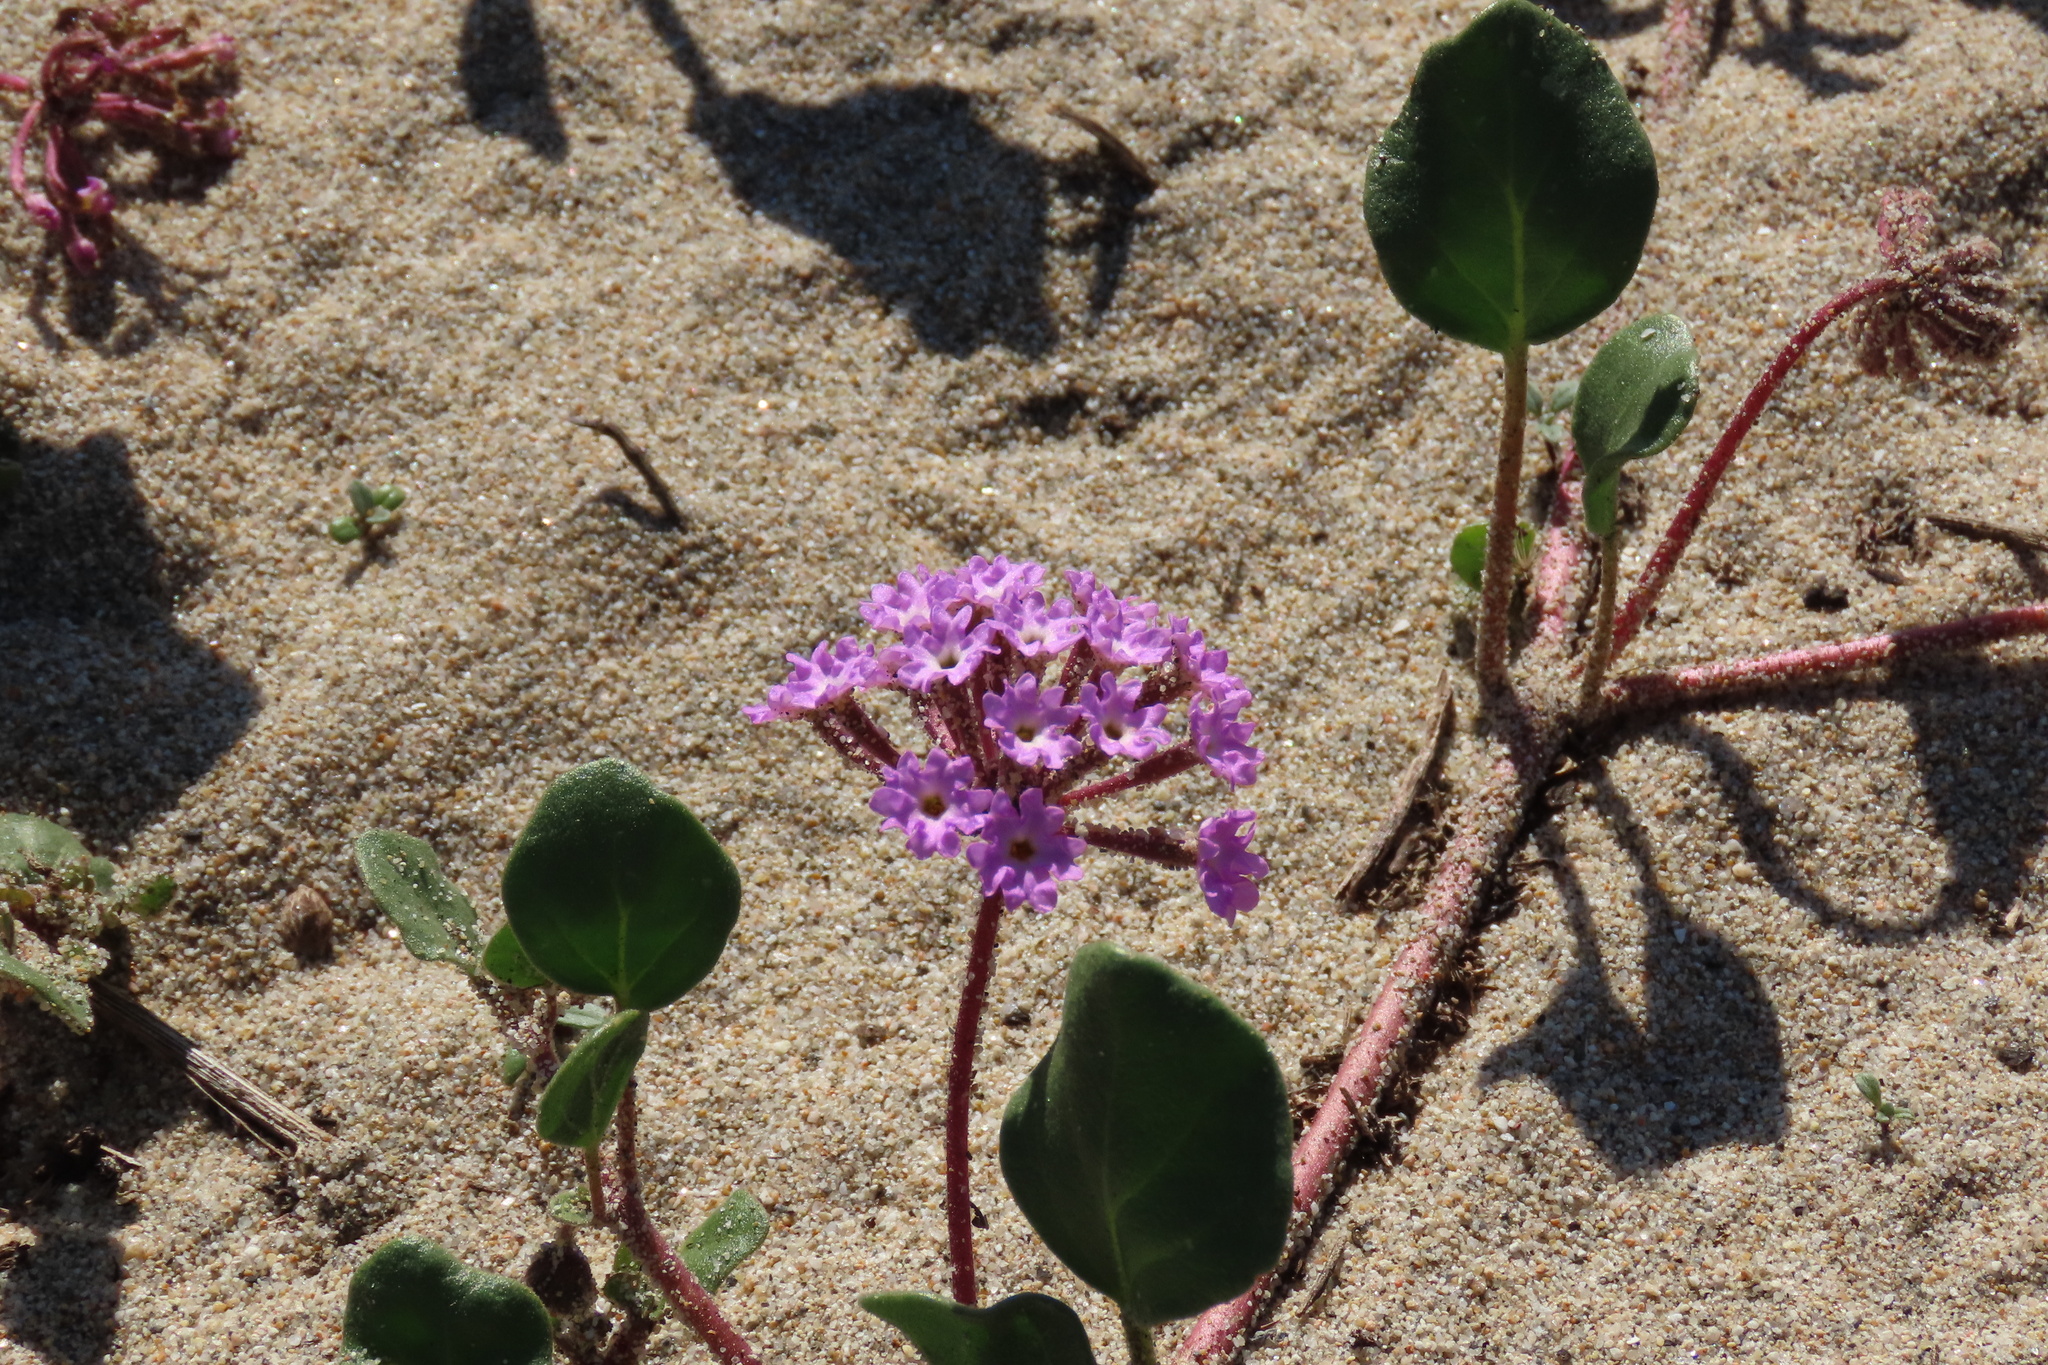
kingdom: Plantae
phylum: Tracheophyta
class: Magnoliopsida
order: Caryophyllales
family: Nyctaginaceae
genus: Abronia
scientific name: Abronia umbellata
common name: Sand-verbena
